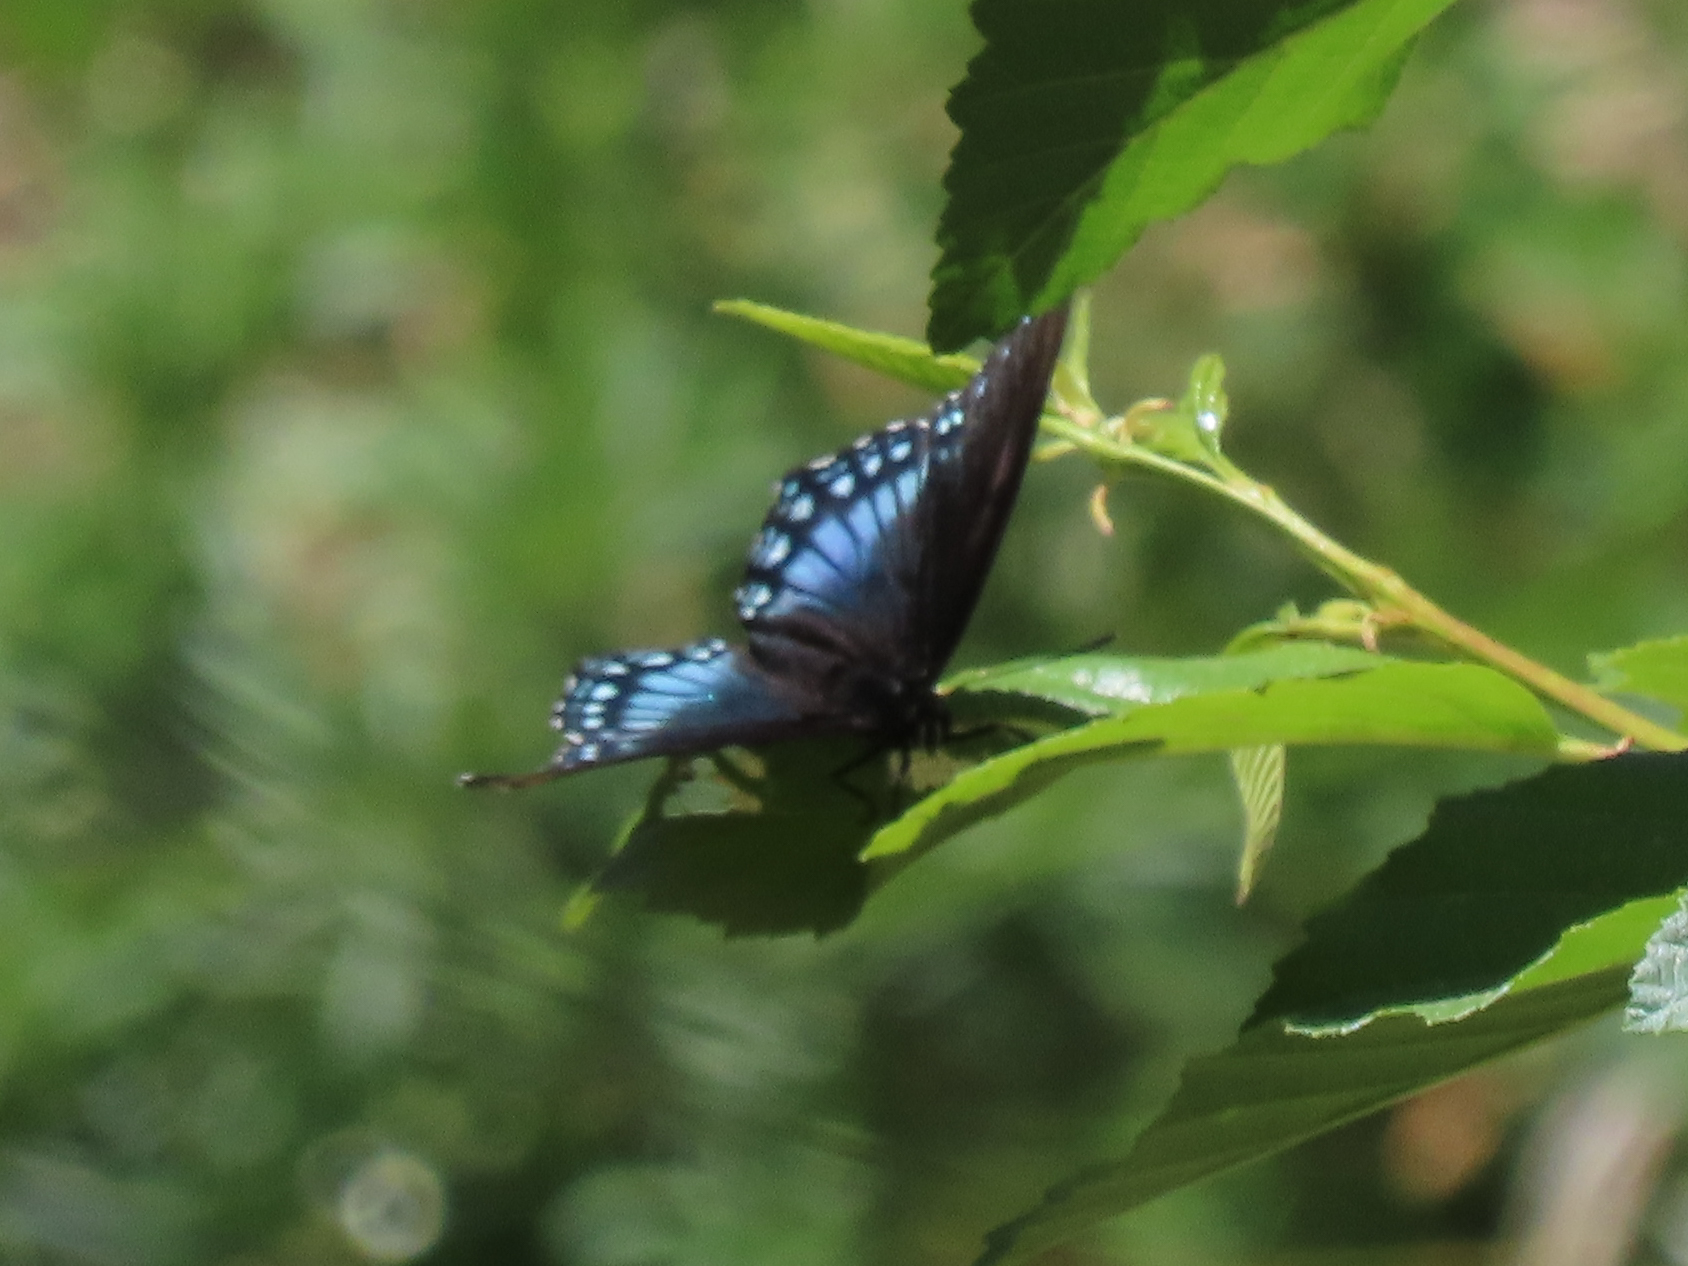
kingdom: Animalia
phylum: Arthropoda
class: Insecta
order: Lepidoptera
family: Nymphalidae
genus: Limenitis
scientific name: Limenitis arthemis
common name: Red-spotted admiral
